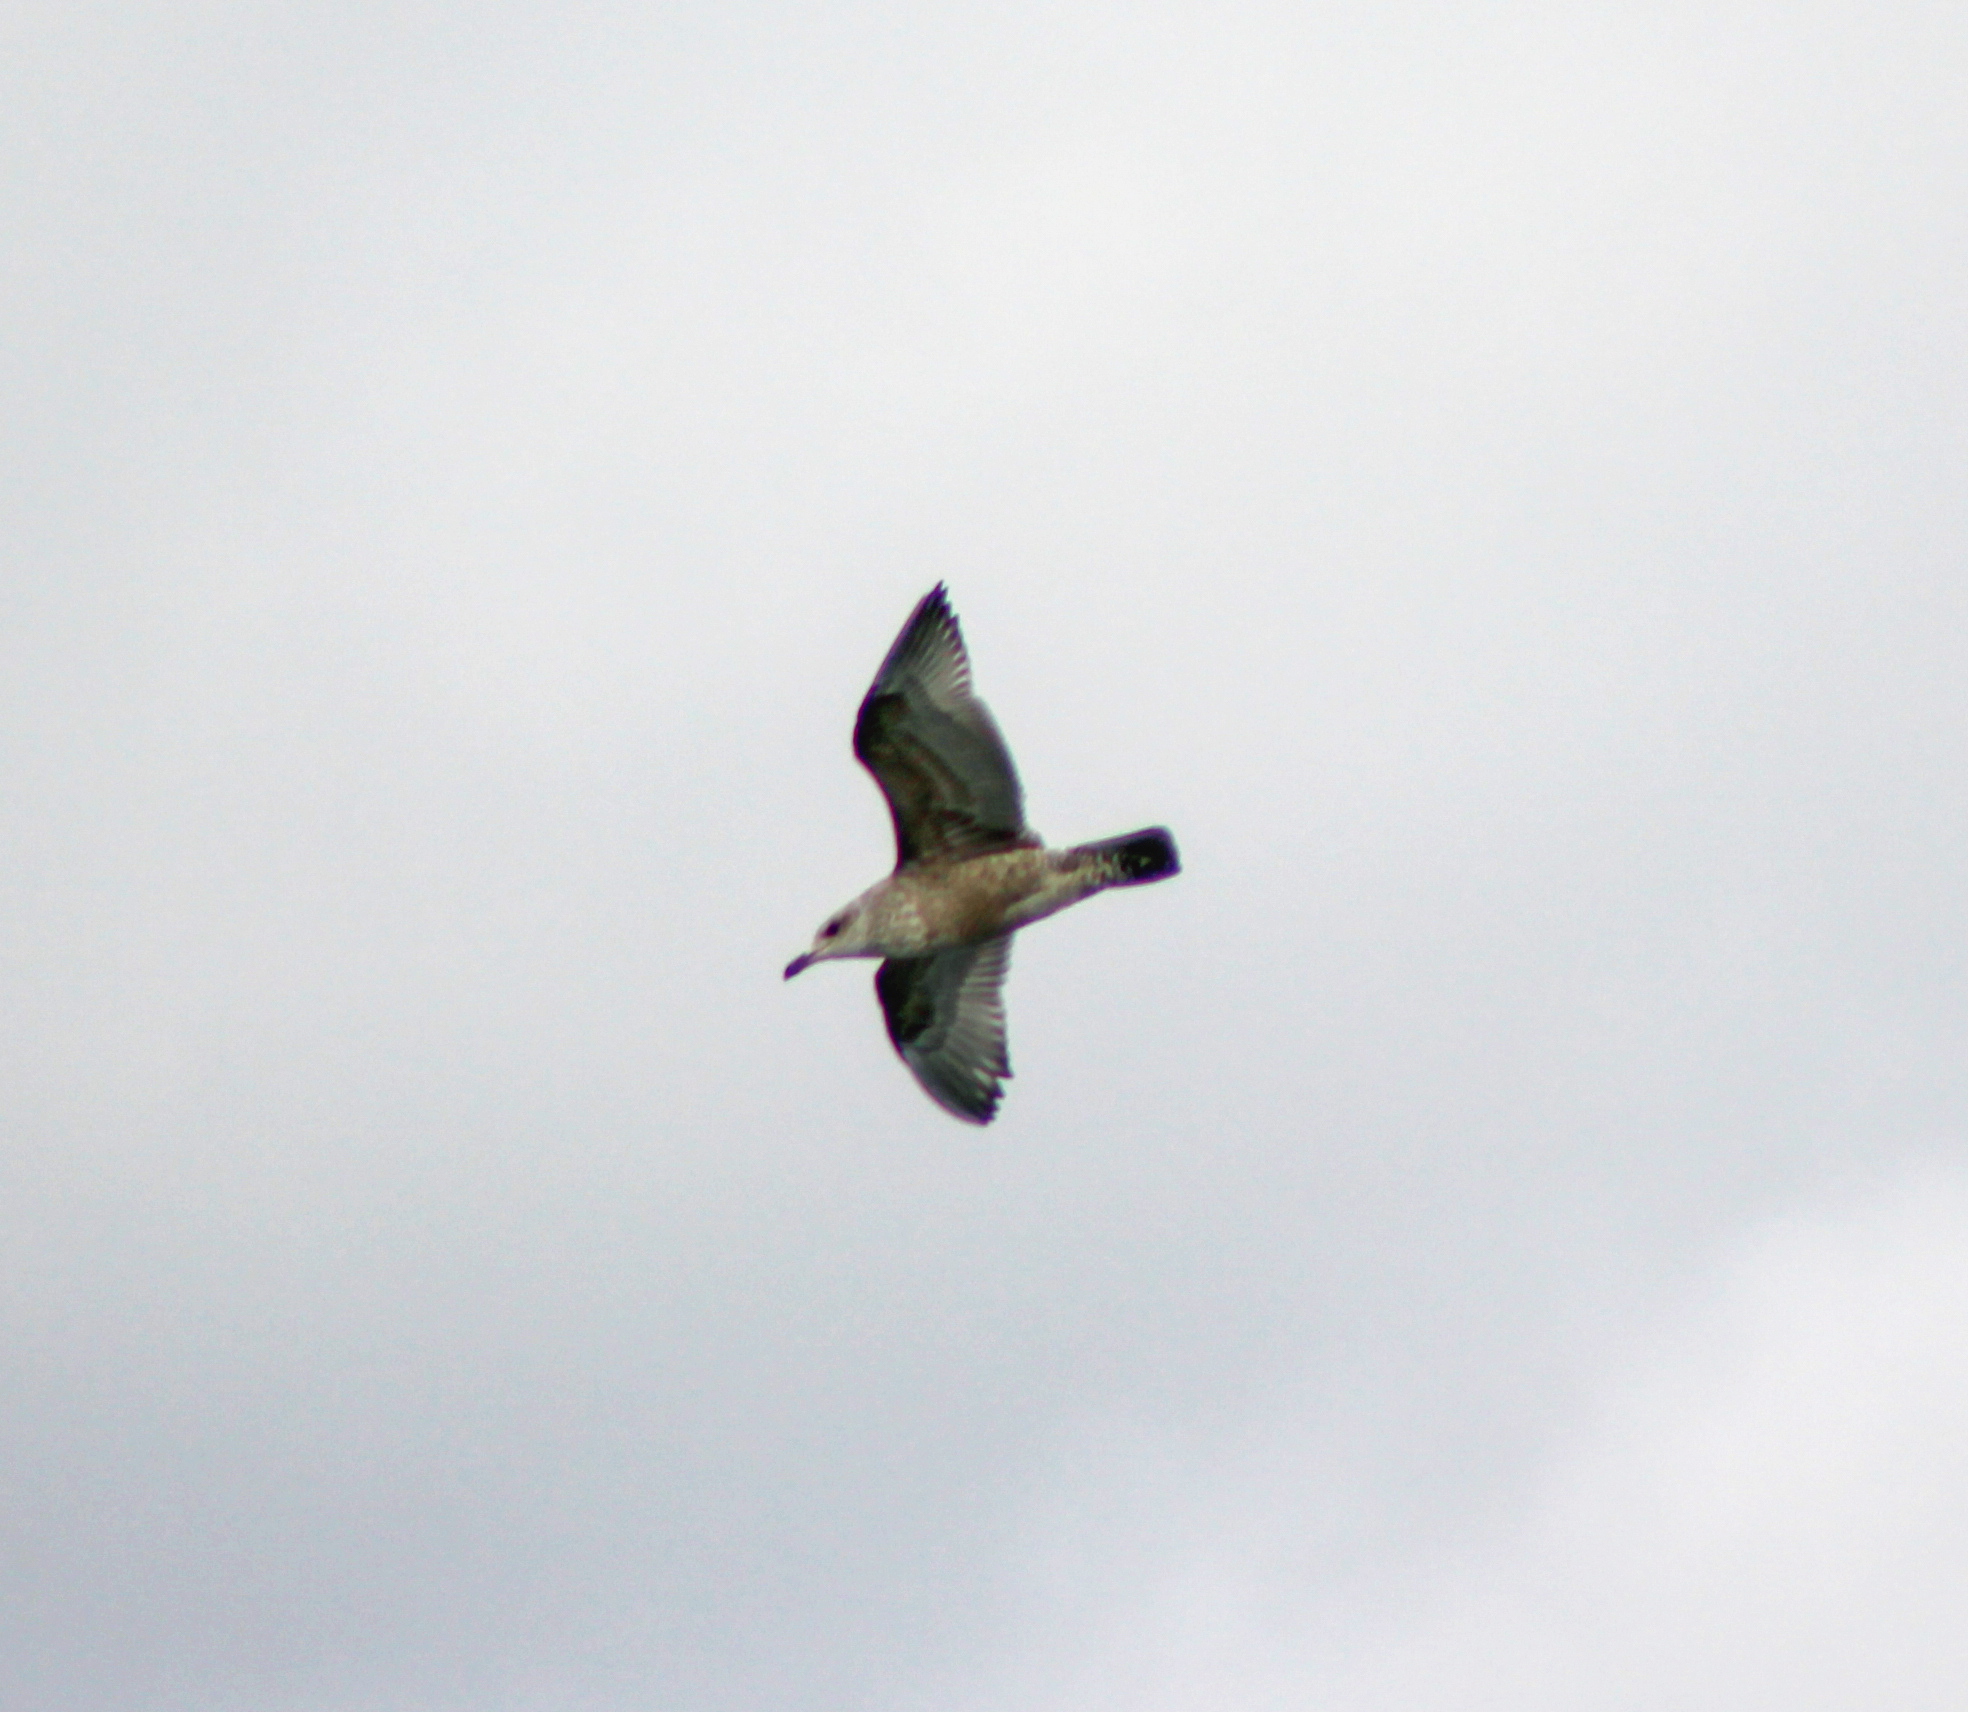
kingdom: Animalia
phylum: Chordata
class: Aves
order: Charadriiformes
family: Laridae
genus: Larus
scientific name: Larus argentatus
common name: Herring gull
